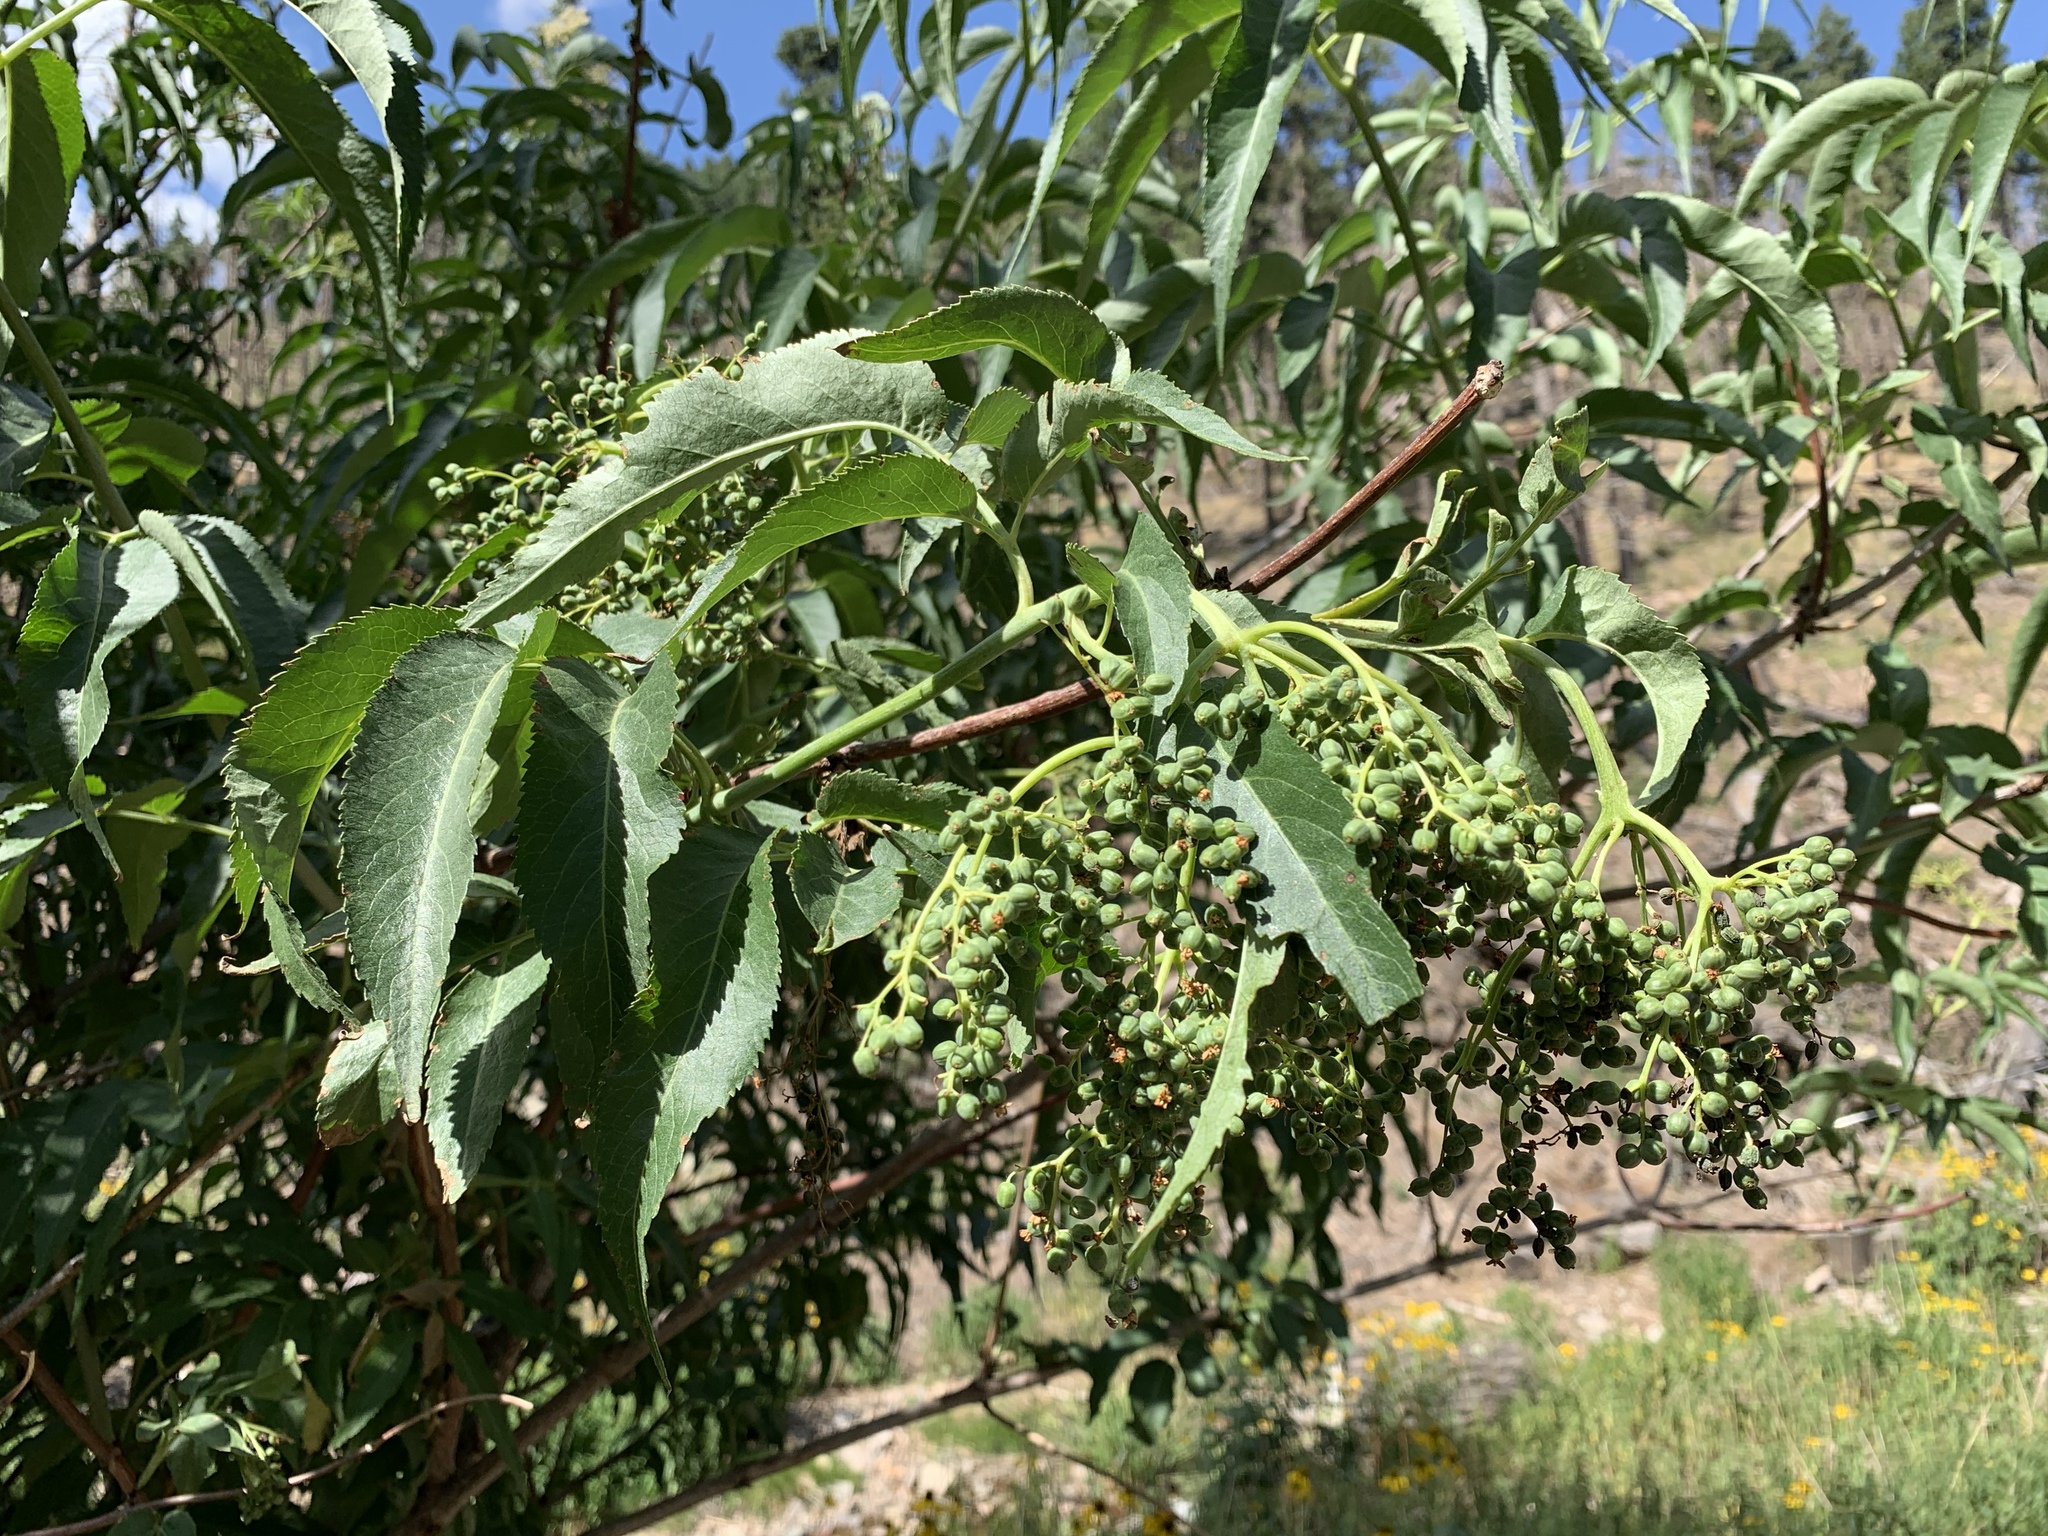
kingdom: Plantae
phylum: Tracheophyta
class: Magnoliopsida
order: Dipsacales
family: Viburnaceae
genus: Sambucus
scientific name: Sambucus cerulea
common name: Blue elder
